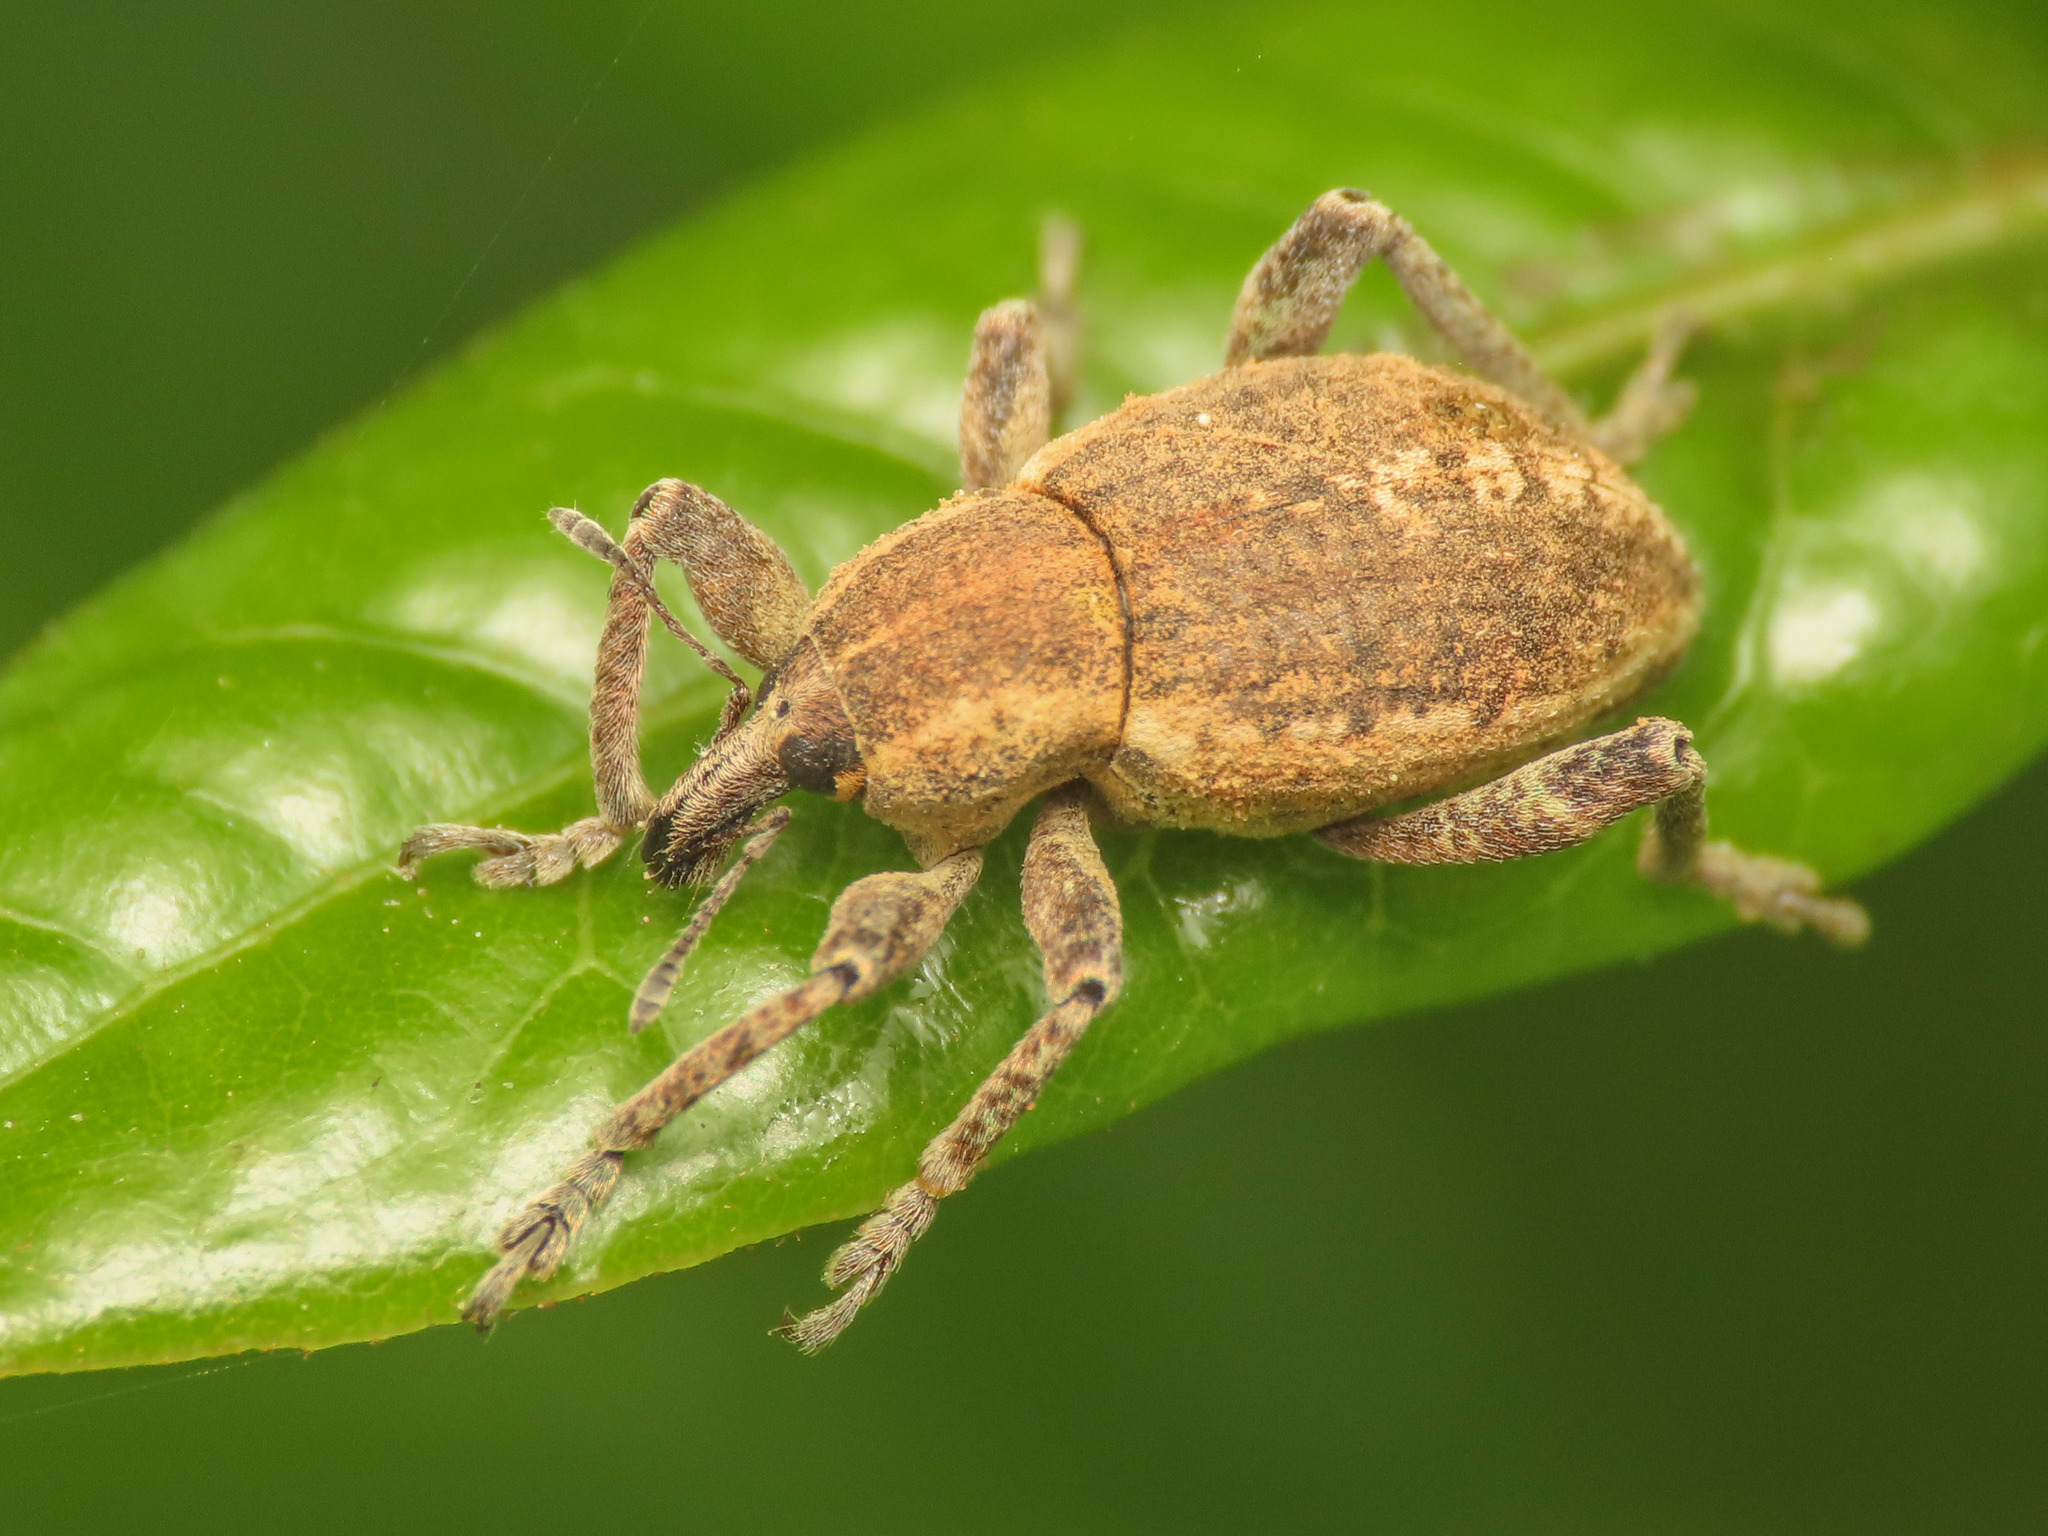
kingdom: Animalia
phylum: Arthropoda
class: Insecta
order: Coleoptera
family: Curculionidae
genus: Donus
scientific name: Donus philanthus
